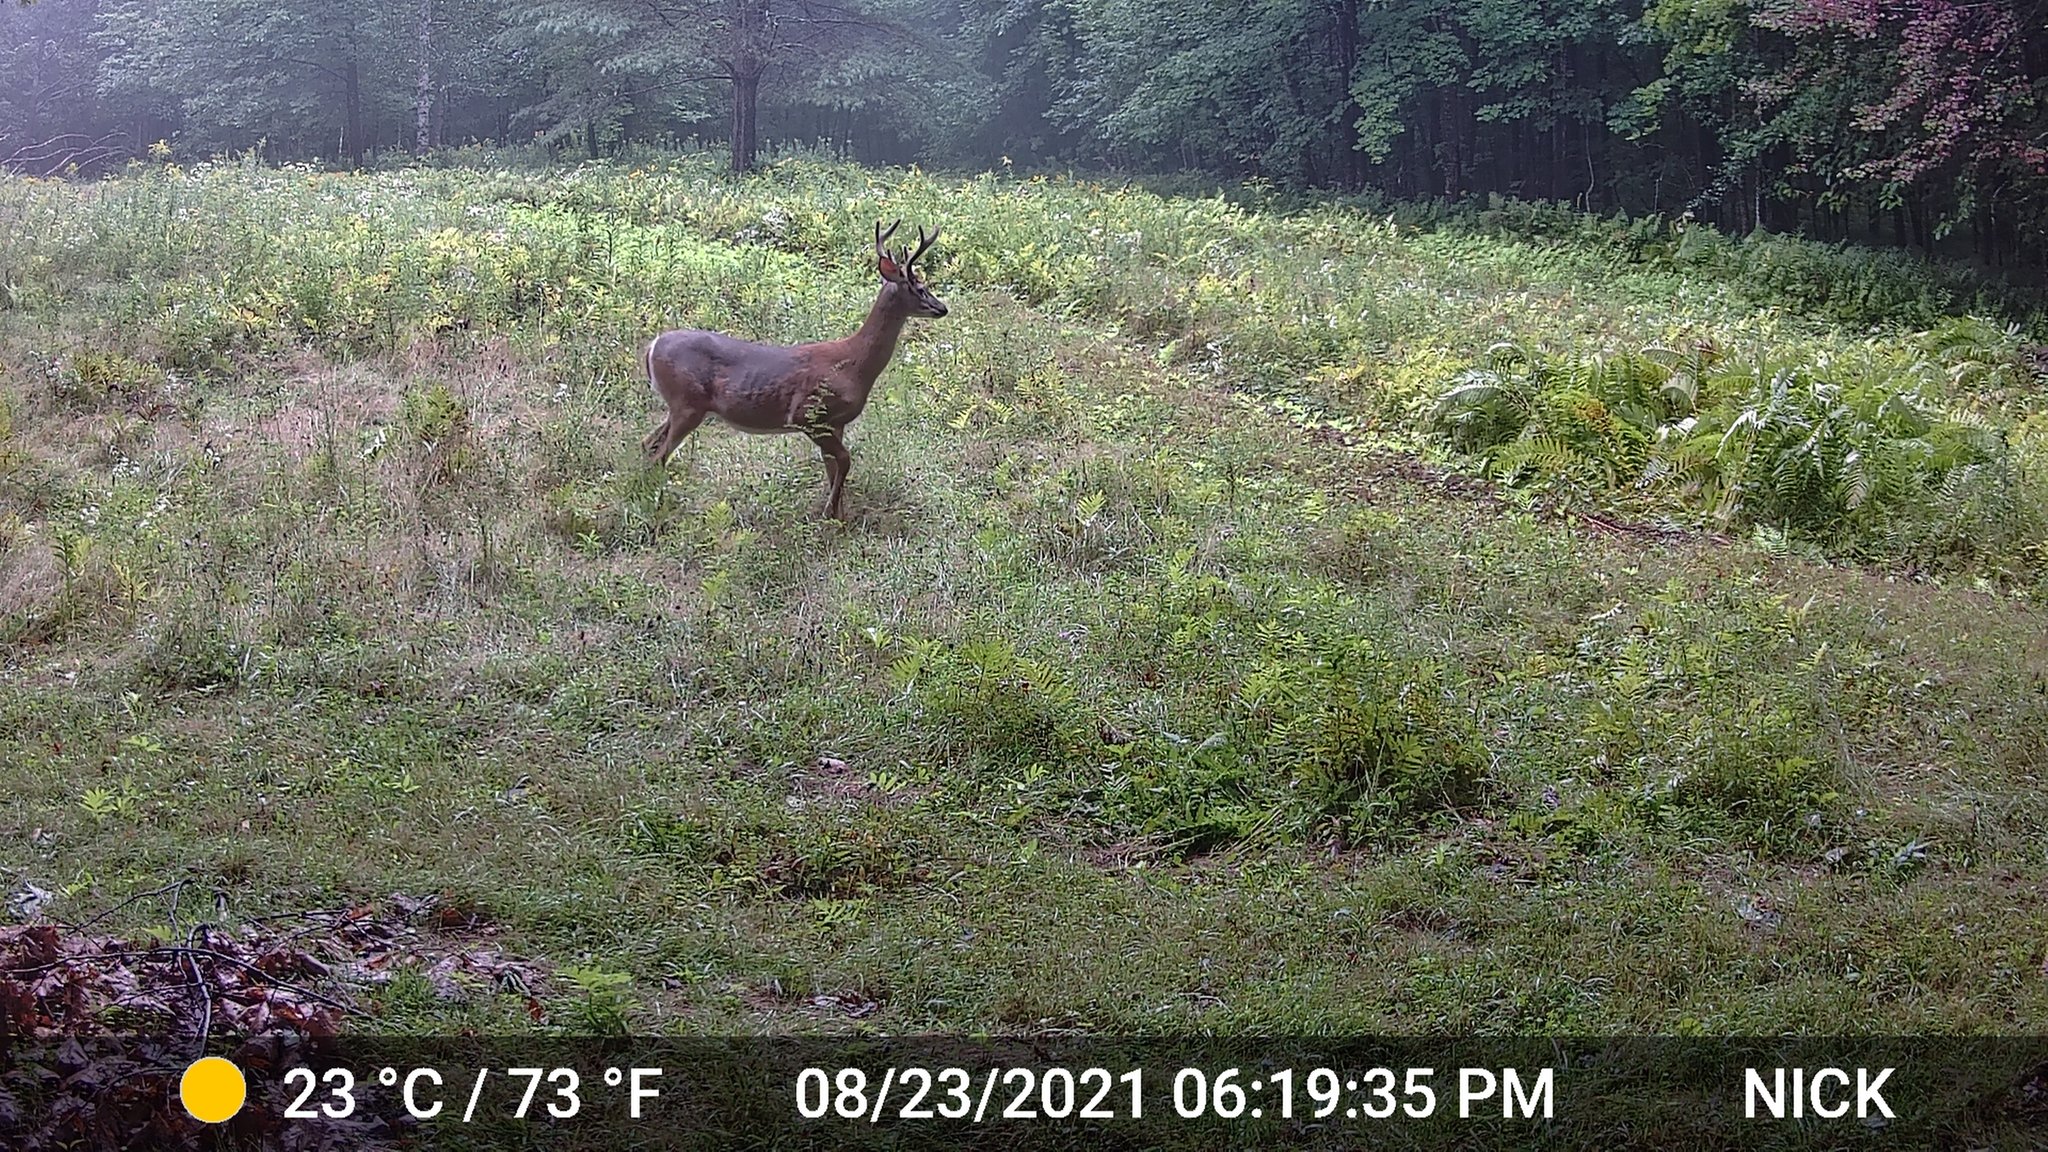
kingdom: Animalia
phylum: Chordata
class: Mammalia
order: Artiodactyla
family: Cervidae
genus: Odocoileus
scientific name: Odocoileus virginianus
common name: White-tailed deer
